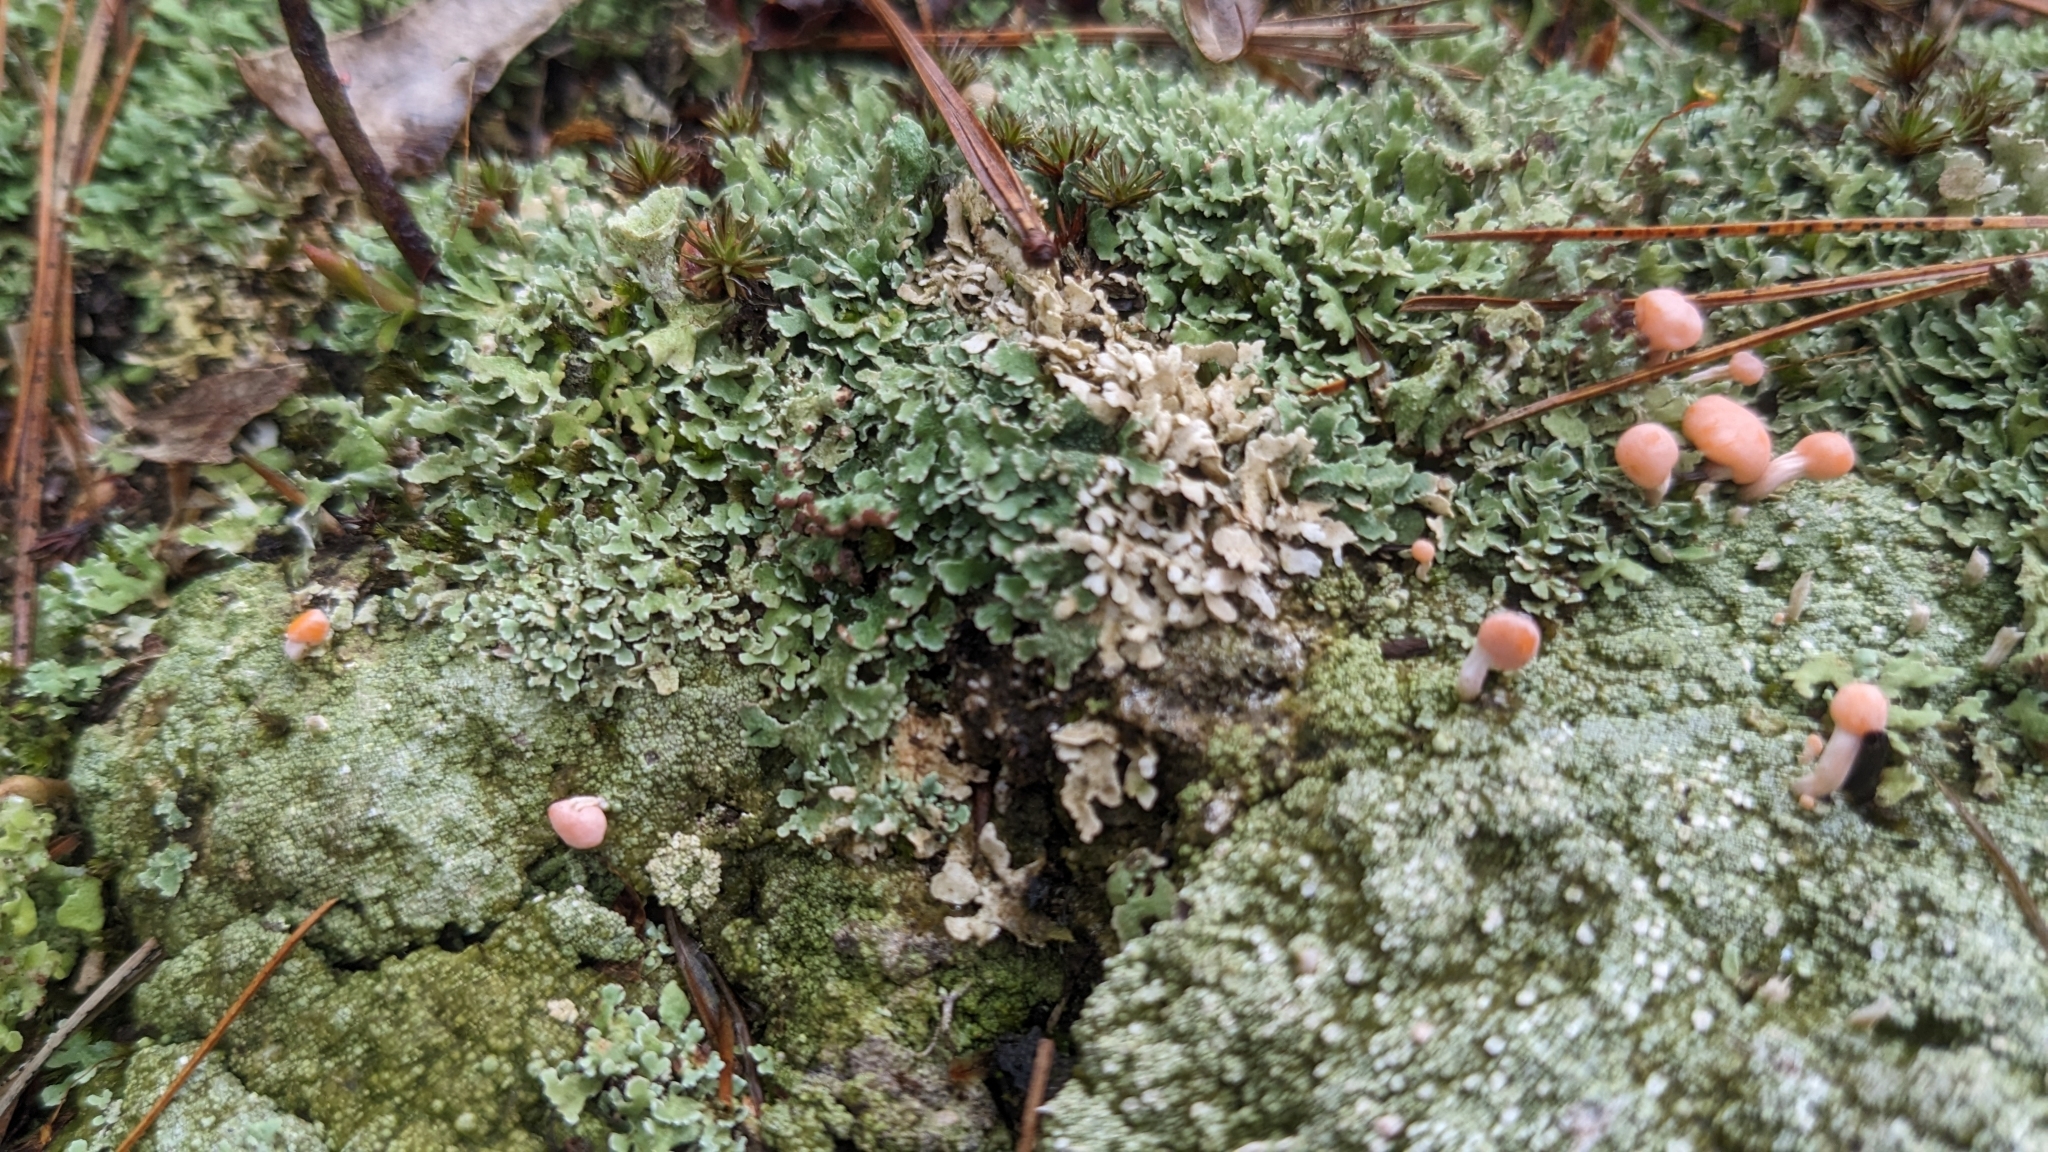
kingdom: Fungi
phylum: Ascomycota
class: Lecanoromycetes
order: Pertusariales
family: Icmadophilaceae
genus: Dibaeis
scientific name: Dibaeis baeomyces
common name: Pink earth lichen
